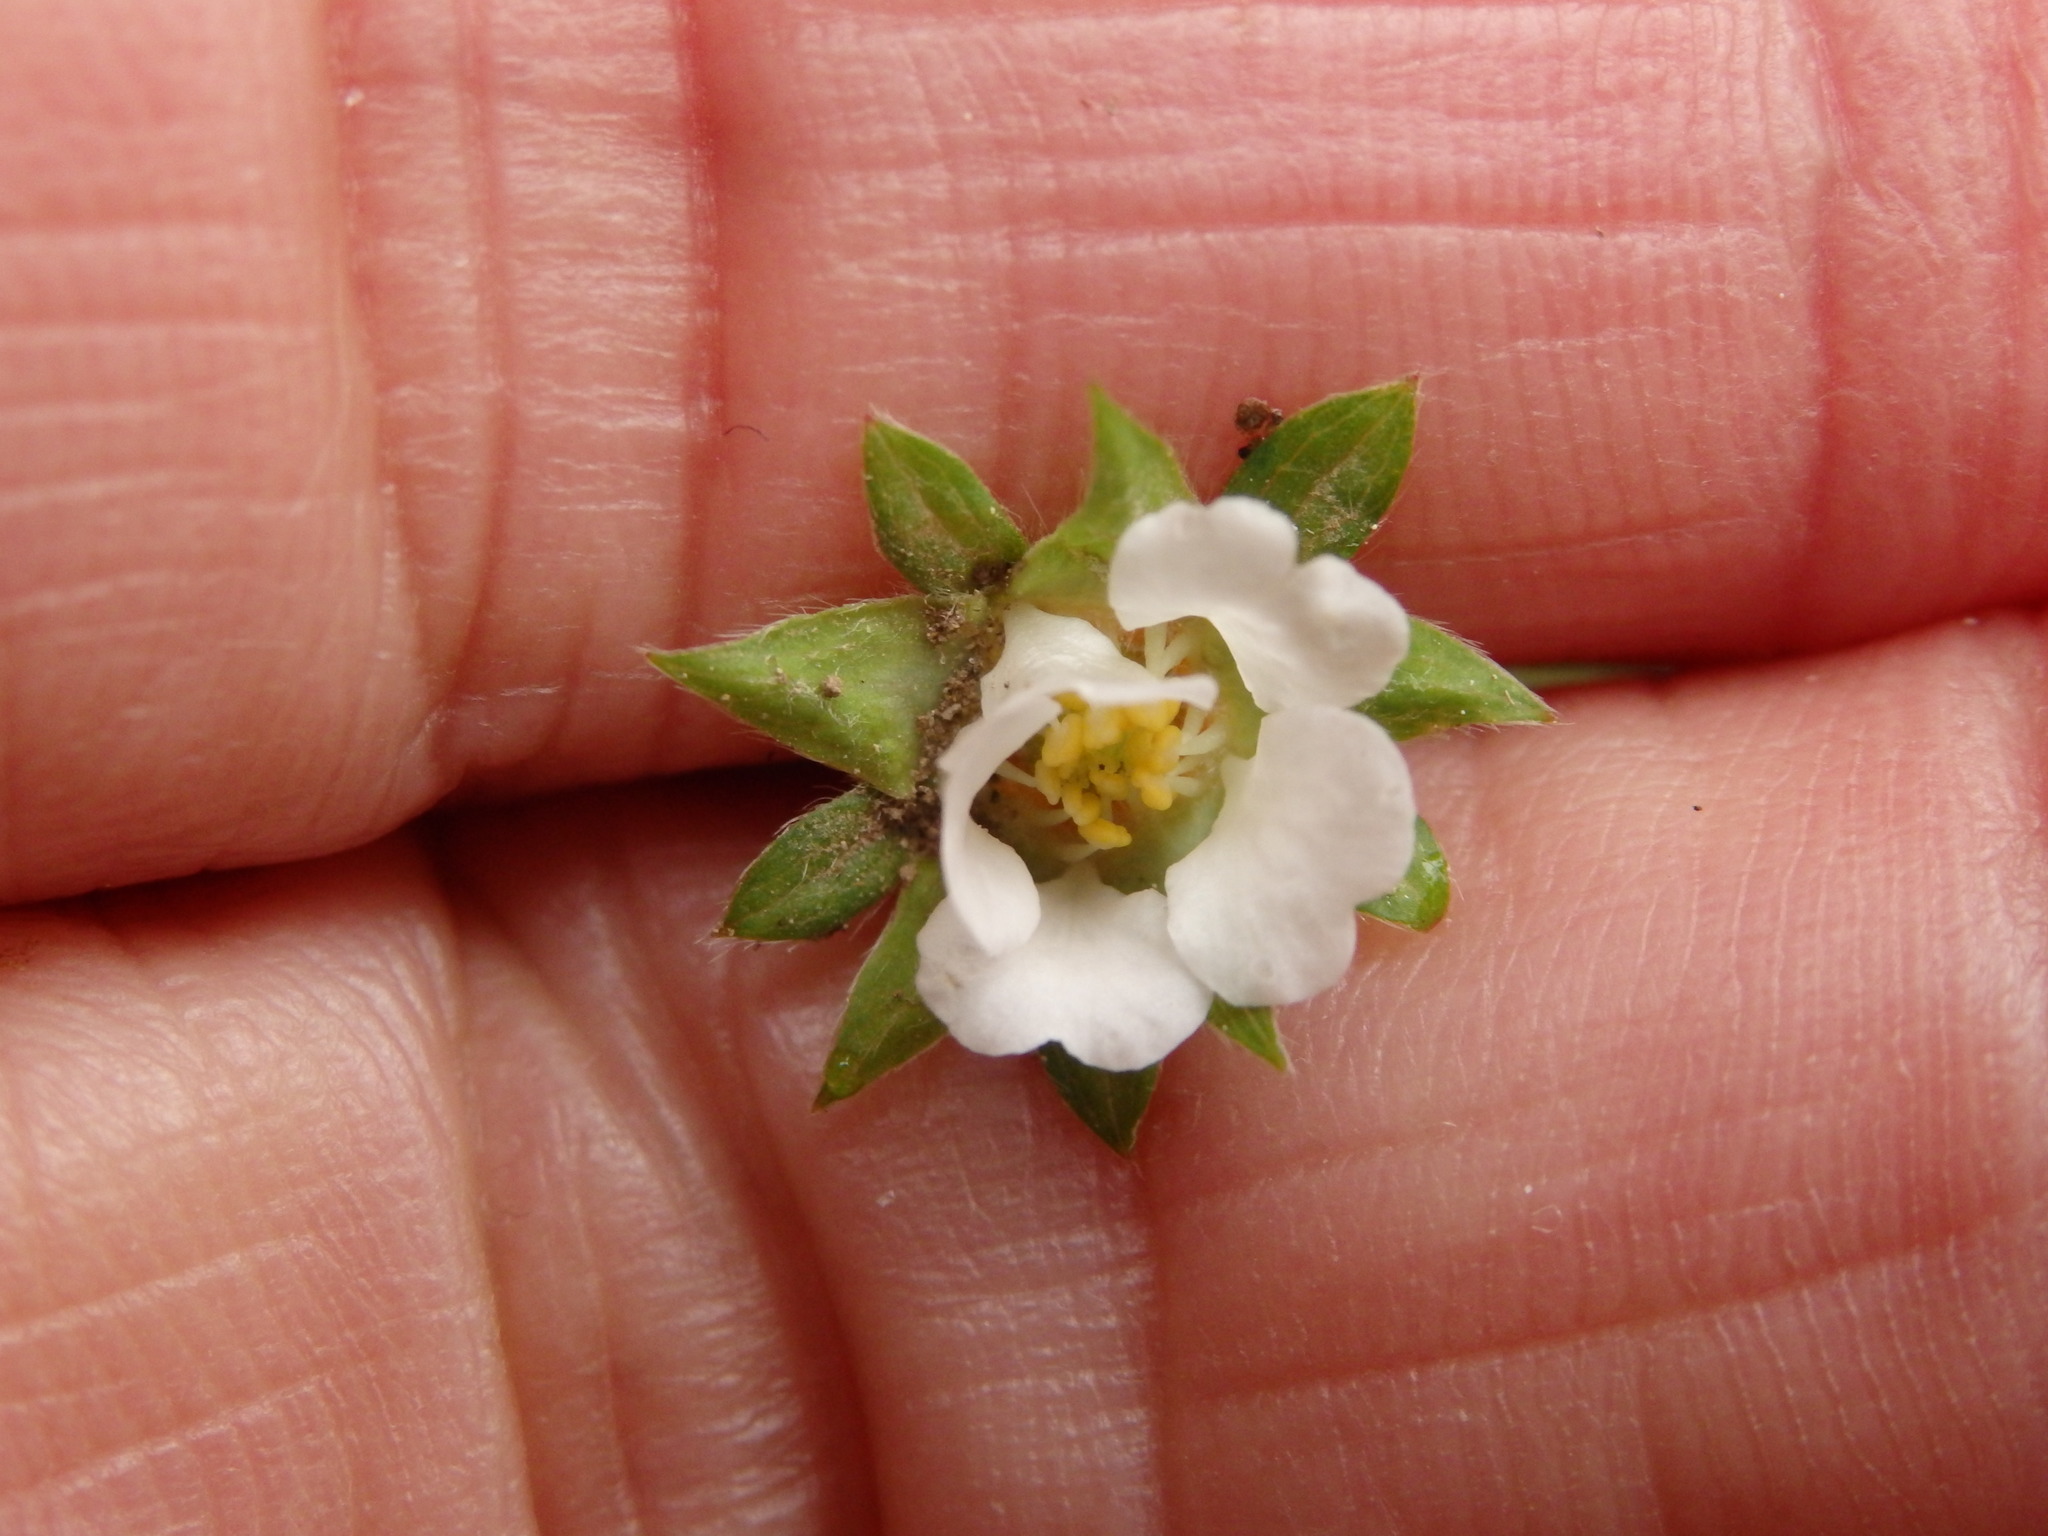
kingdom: Plantae
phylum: Tracheophyta
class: Magnoliopsida
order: Rosales
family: Rosaceae
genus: Potentilla
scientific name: Potentilla sterilis
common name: Barren strawberry
